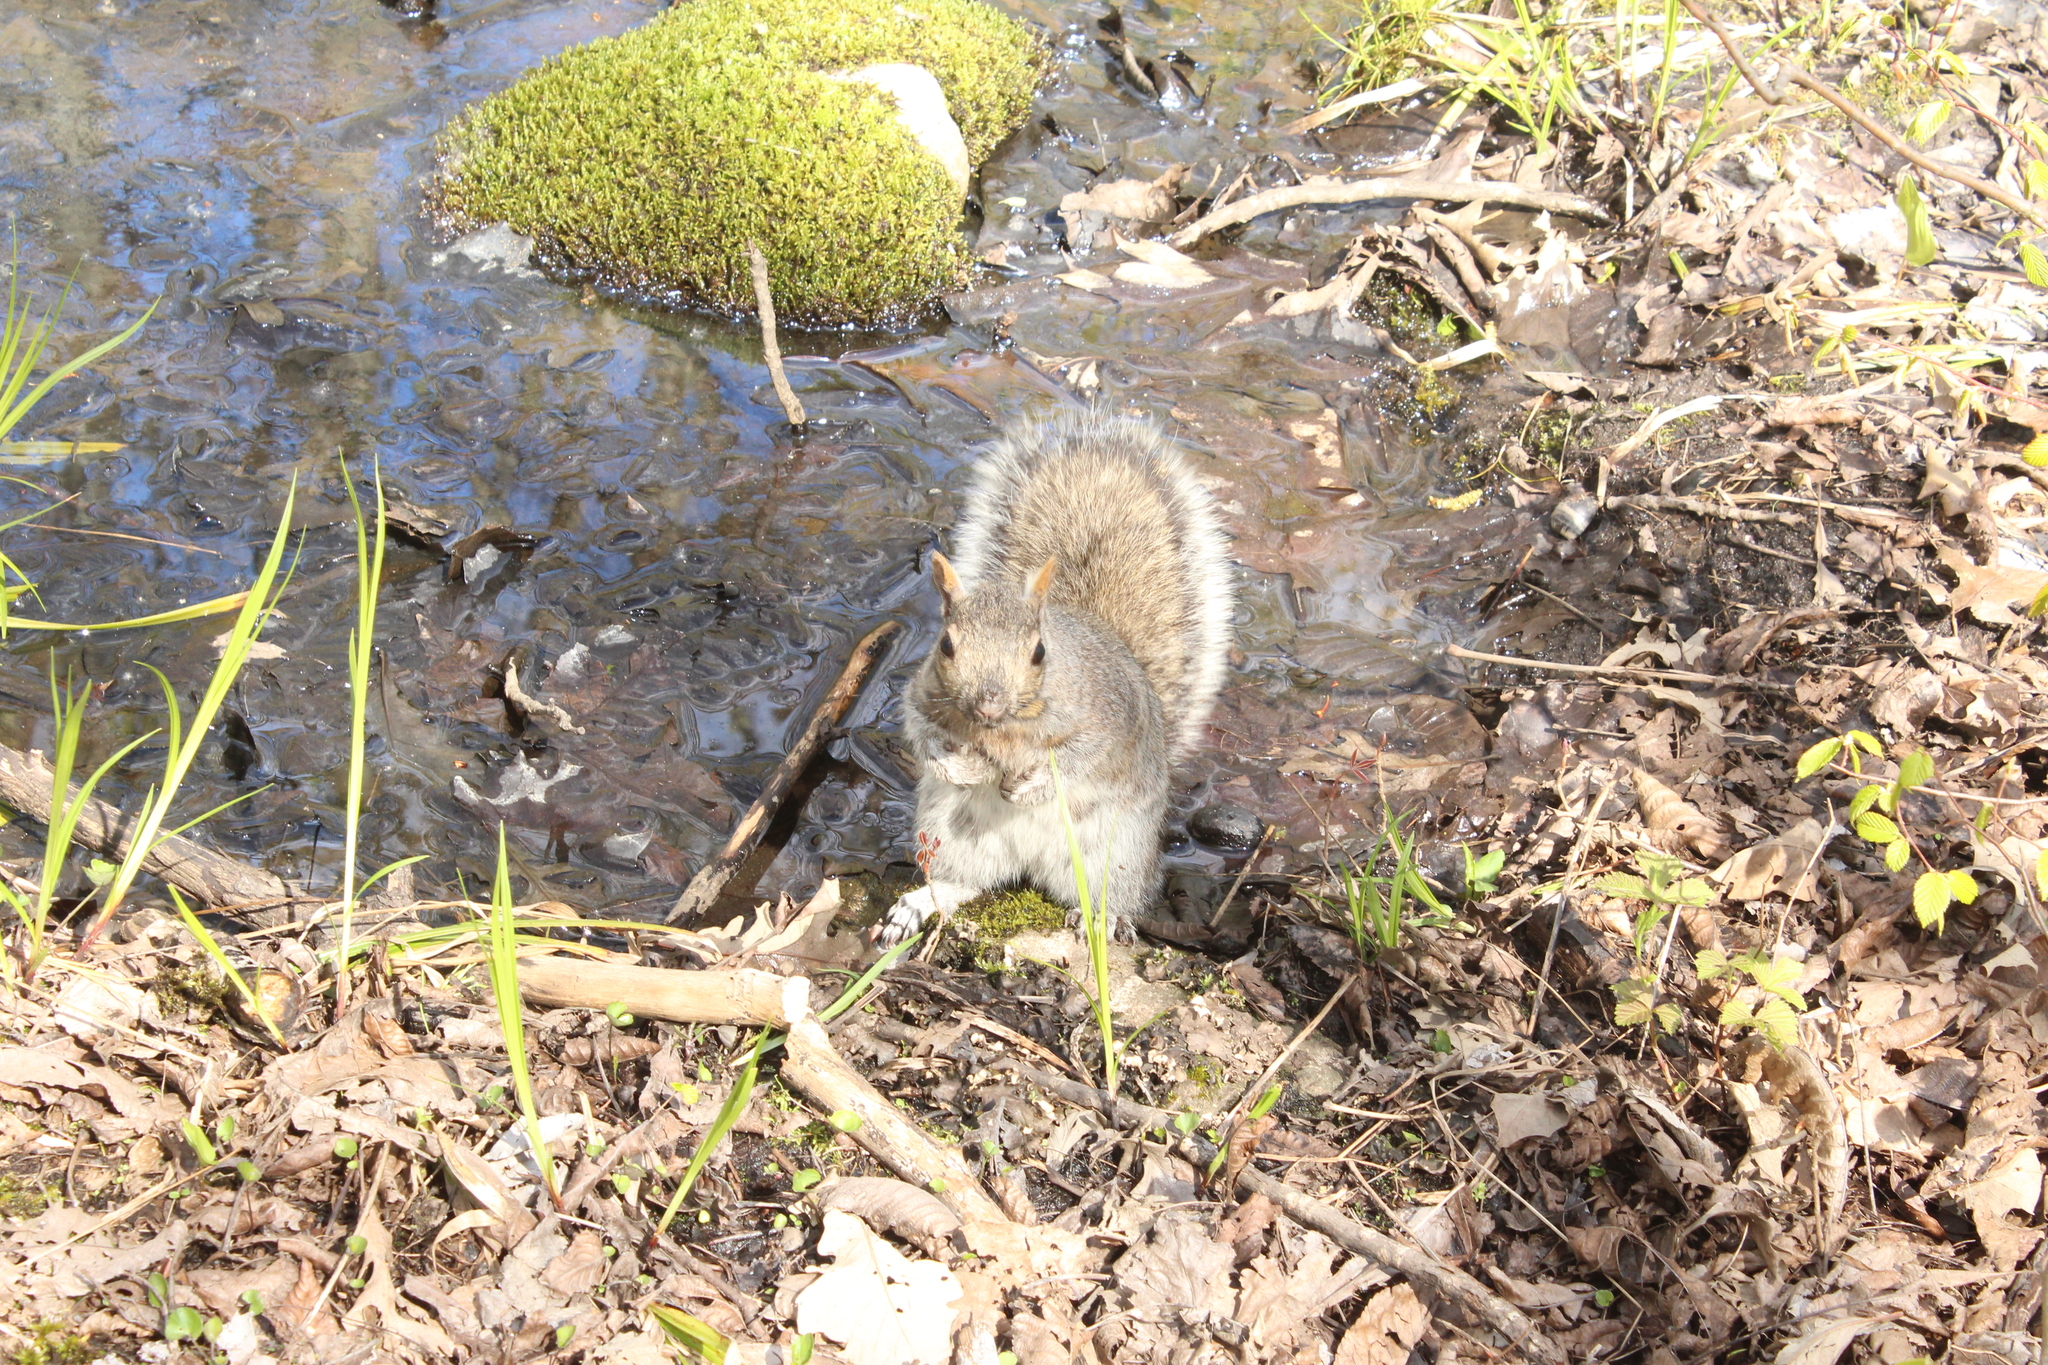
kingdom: Animalia
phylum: Chordata
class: Mammalia
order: Rodentia
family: Sciuridae
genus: Sciurus
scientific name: Sciurus carolinensis
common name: Eastern gray squirrel
